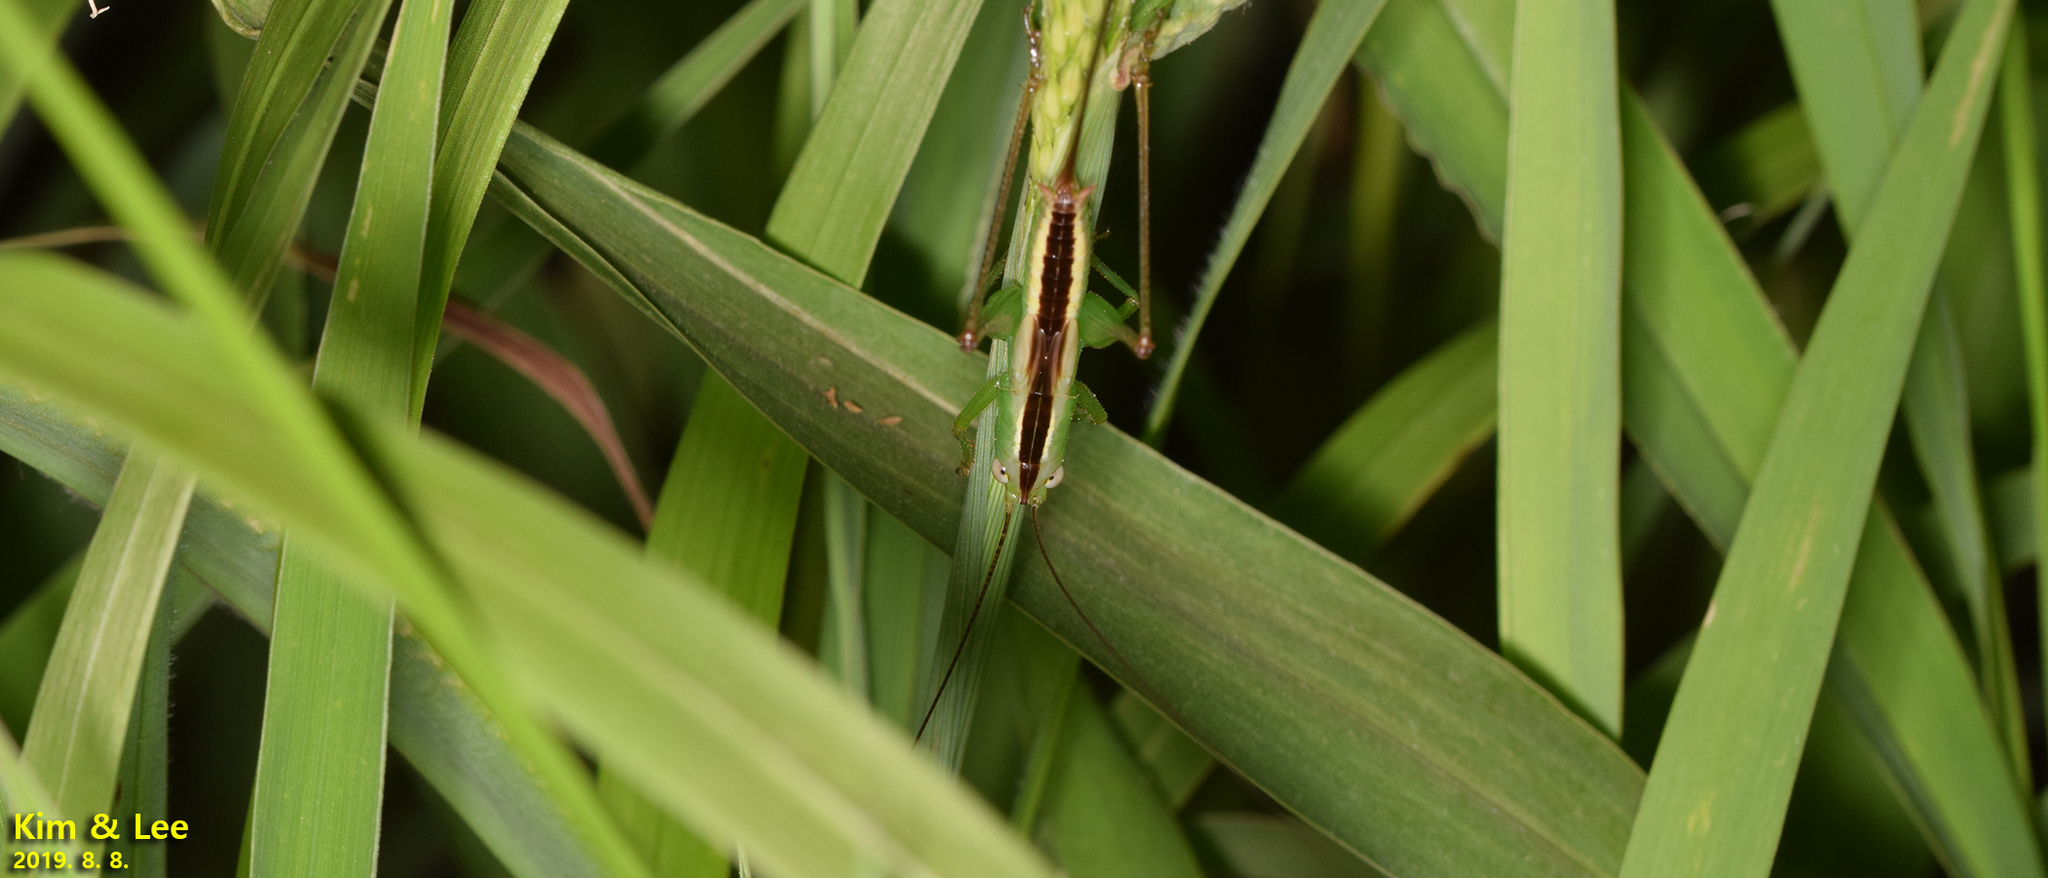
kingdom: Animalia
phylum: Arthropoda
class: Insecta
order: Orthoptera
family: Tettigoniidae
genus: Conocephalus
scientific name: Conocephalus exemptus
